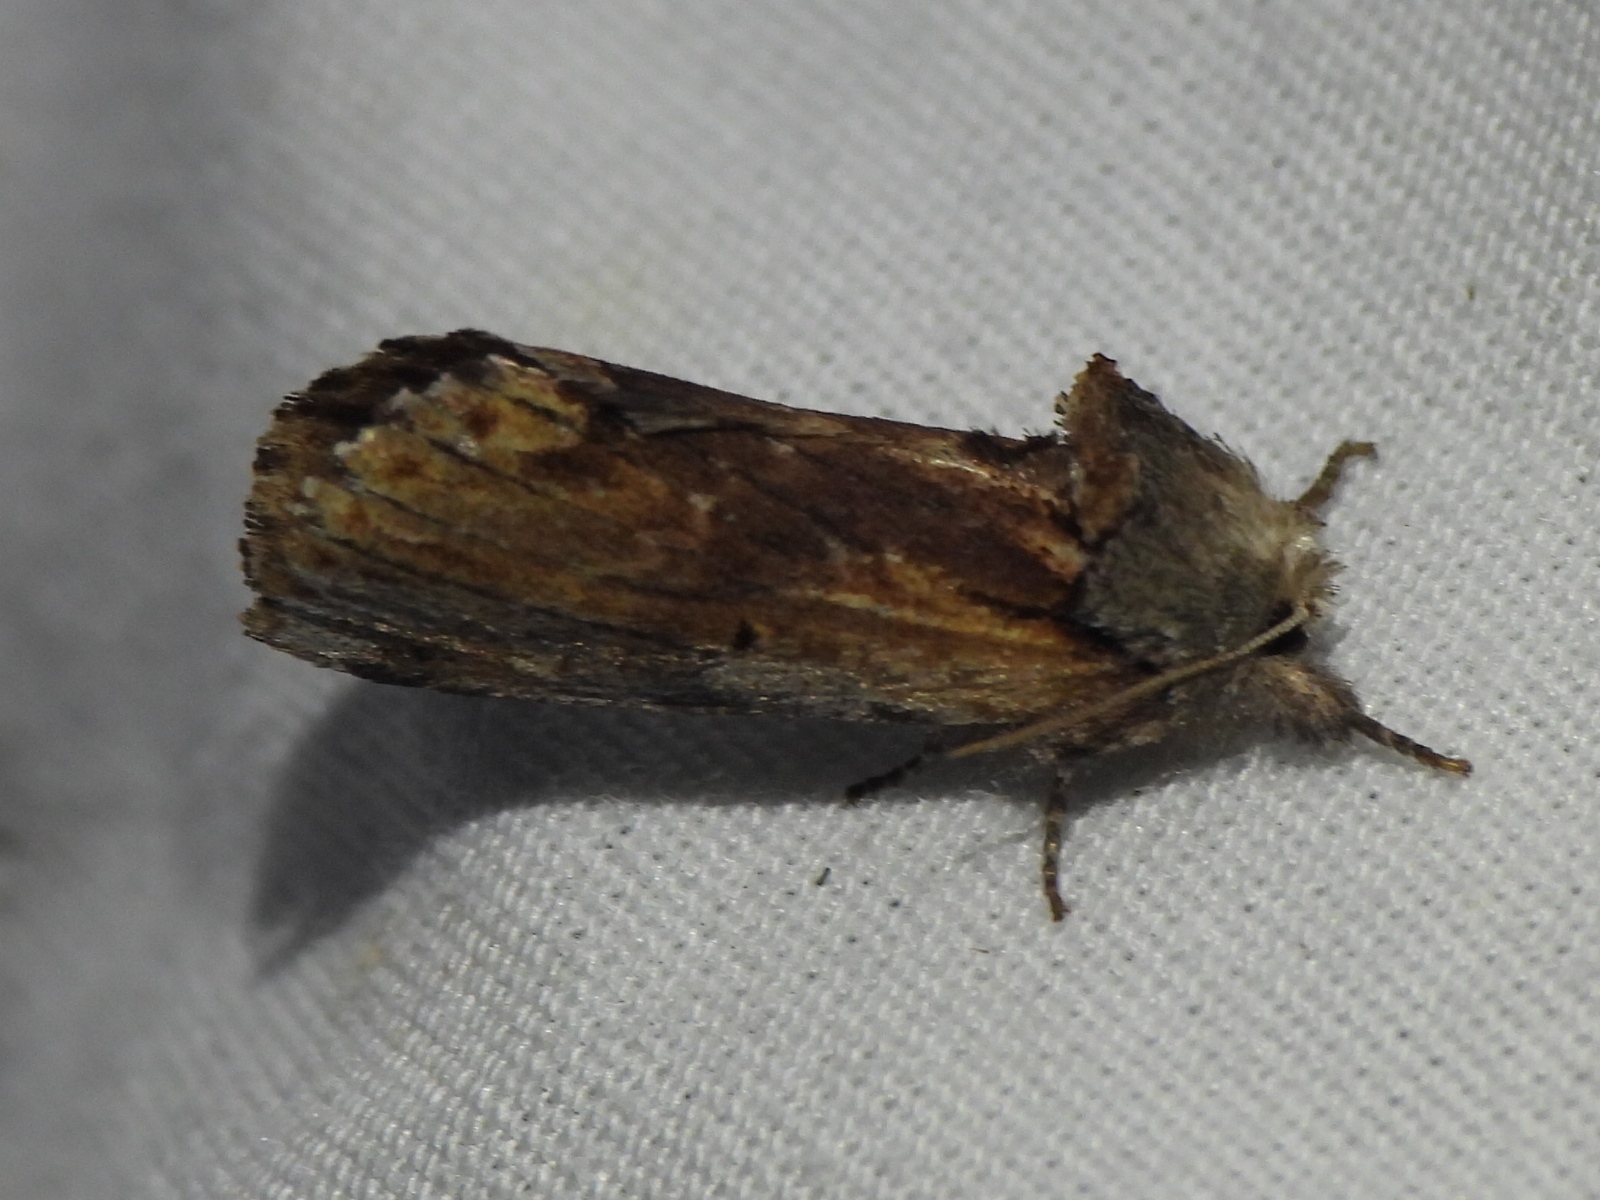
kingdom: Animalia
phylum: Arthropoda
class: Insecta
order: Lepidoptera
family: Notodontidae
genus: Schizura
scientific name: Schizura
